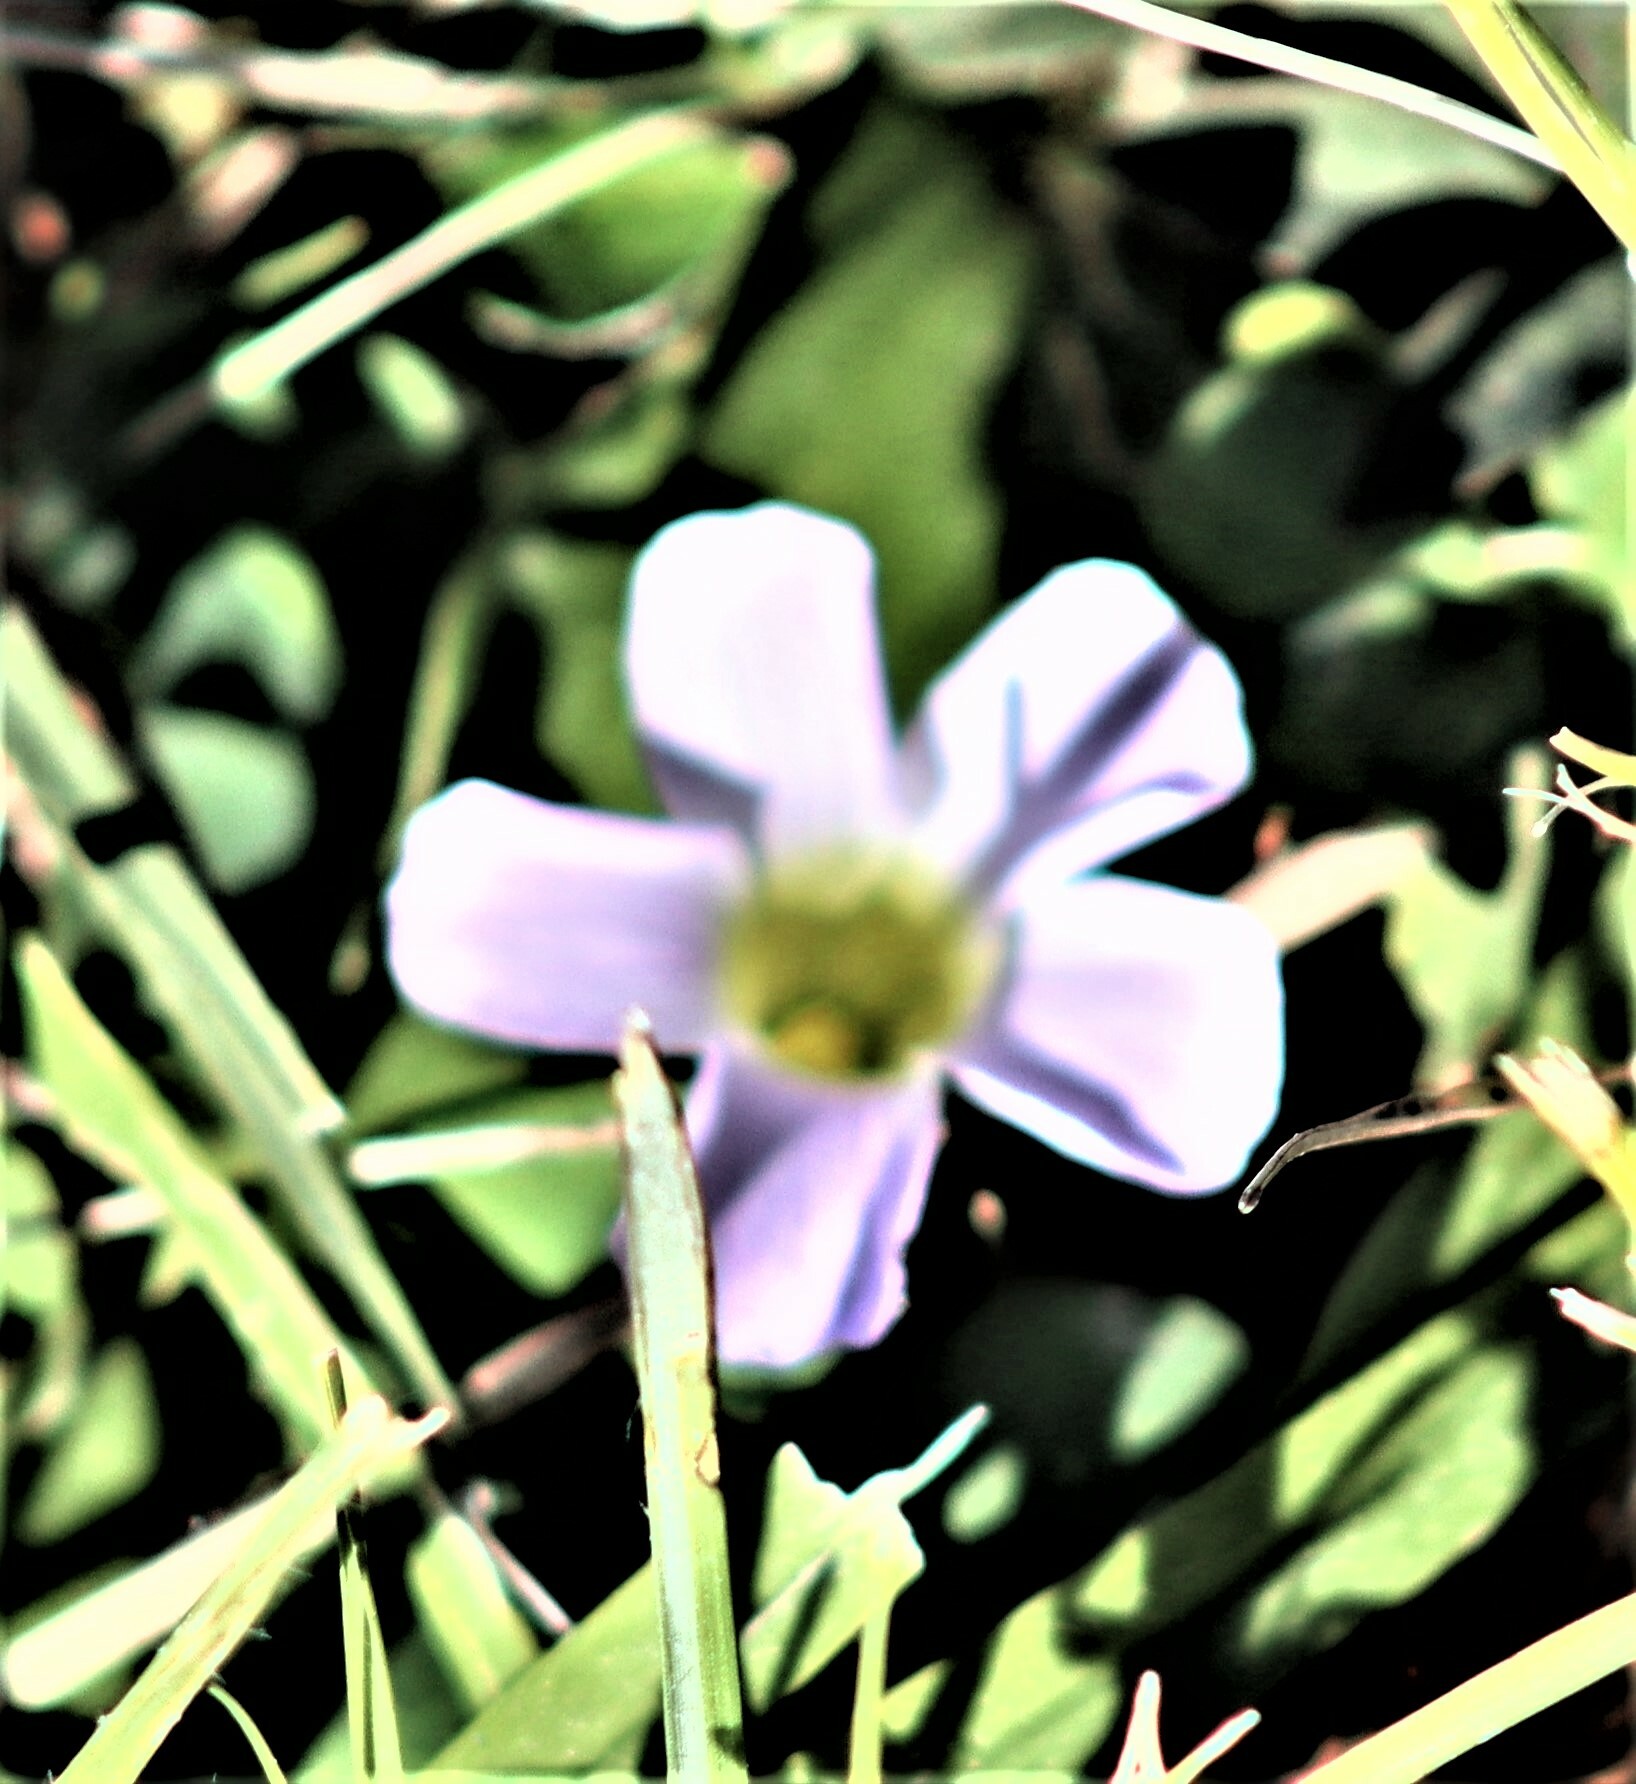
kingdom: Plantae
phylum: Tracheophyta
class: Magnoliopsida
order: Oxalidales
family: Oxalidaceae
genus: Oxalis
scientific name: Oxalis purpurea
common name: Purple woodsorrel
